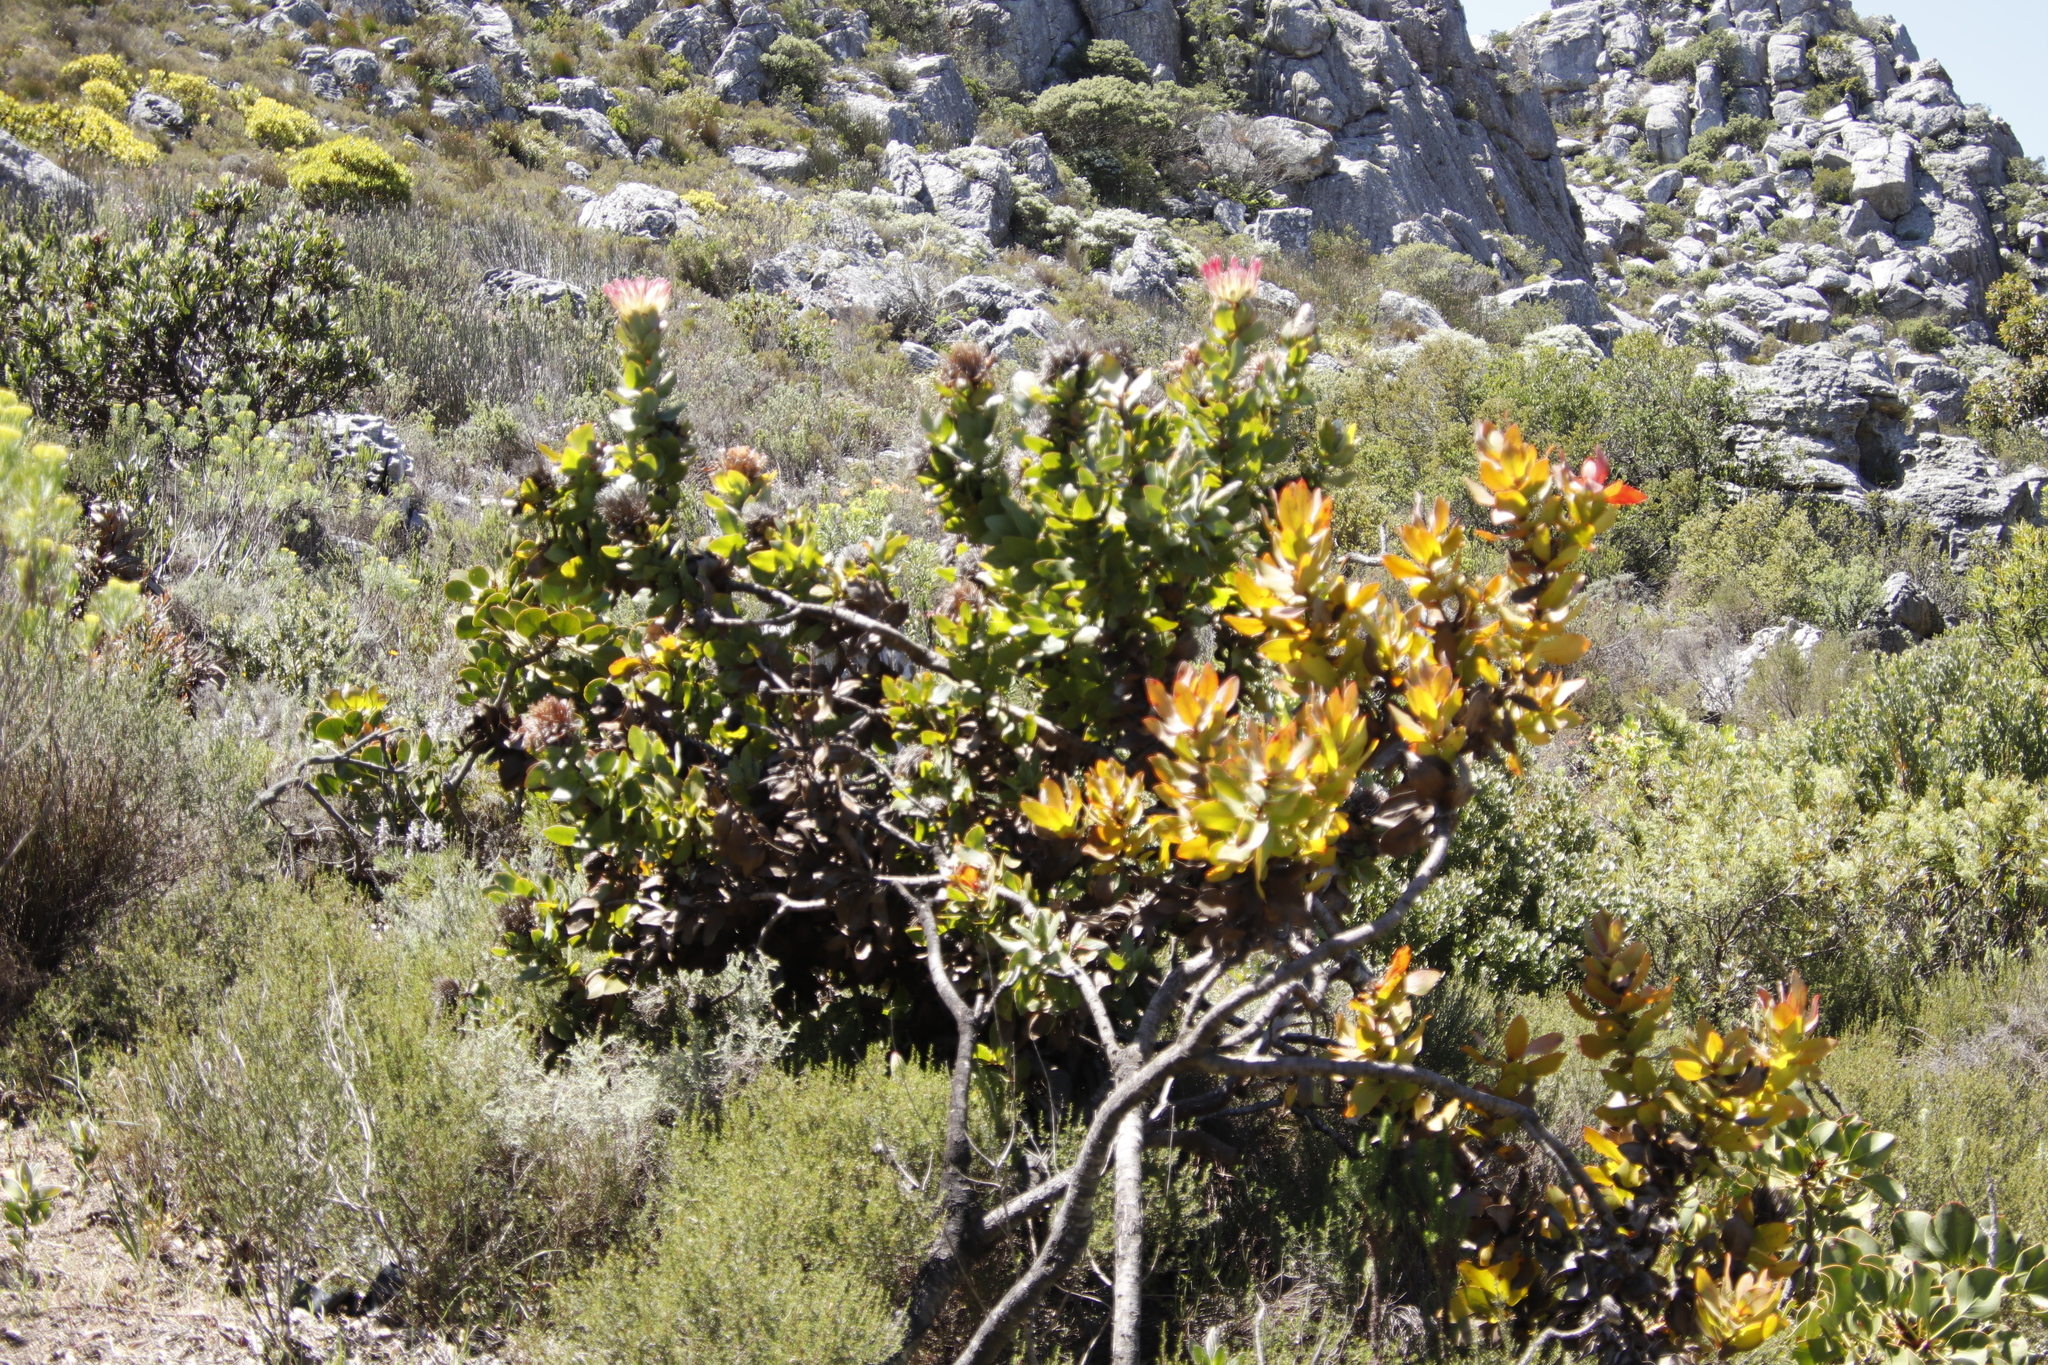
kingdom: Plantae
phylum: Tracheophyta
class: Magnoliopsida
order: Proteales
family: Proteaceae
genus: Protea
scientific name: Protea eximia
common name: Broad-leaved sugarbush
